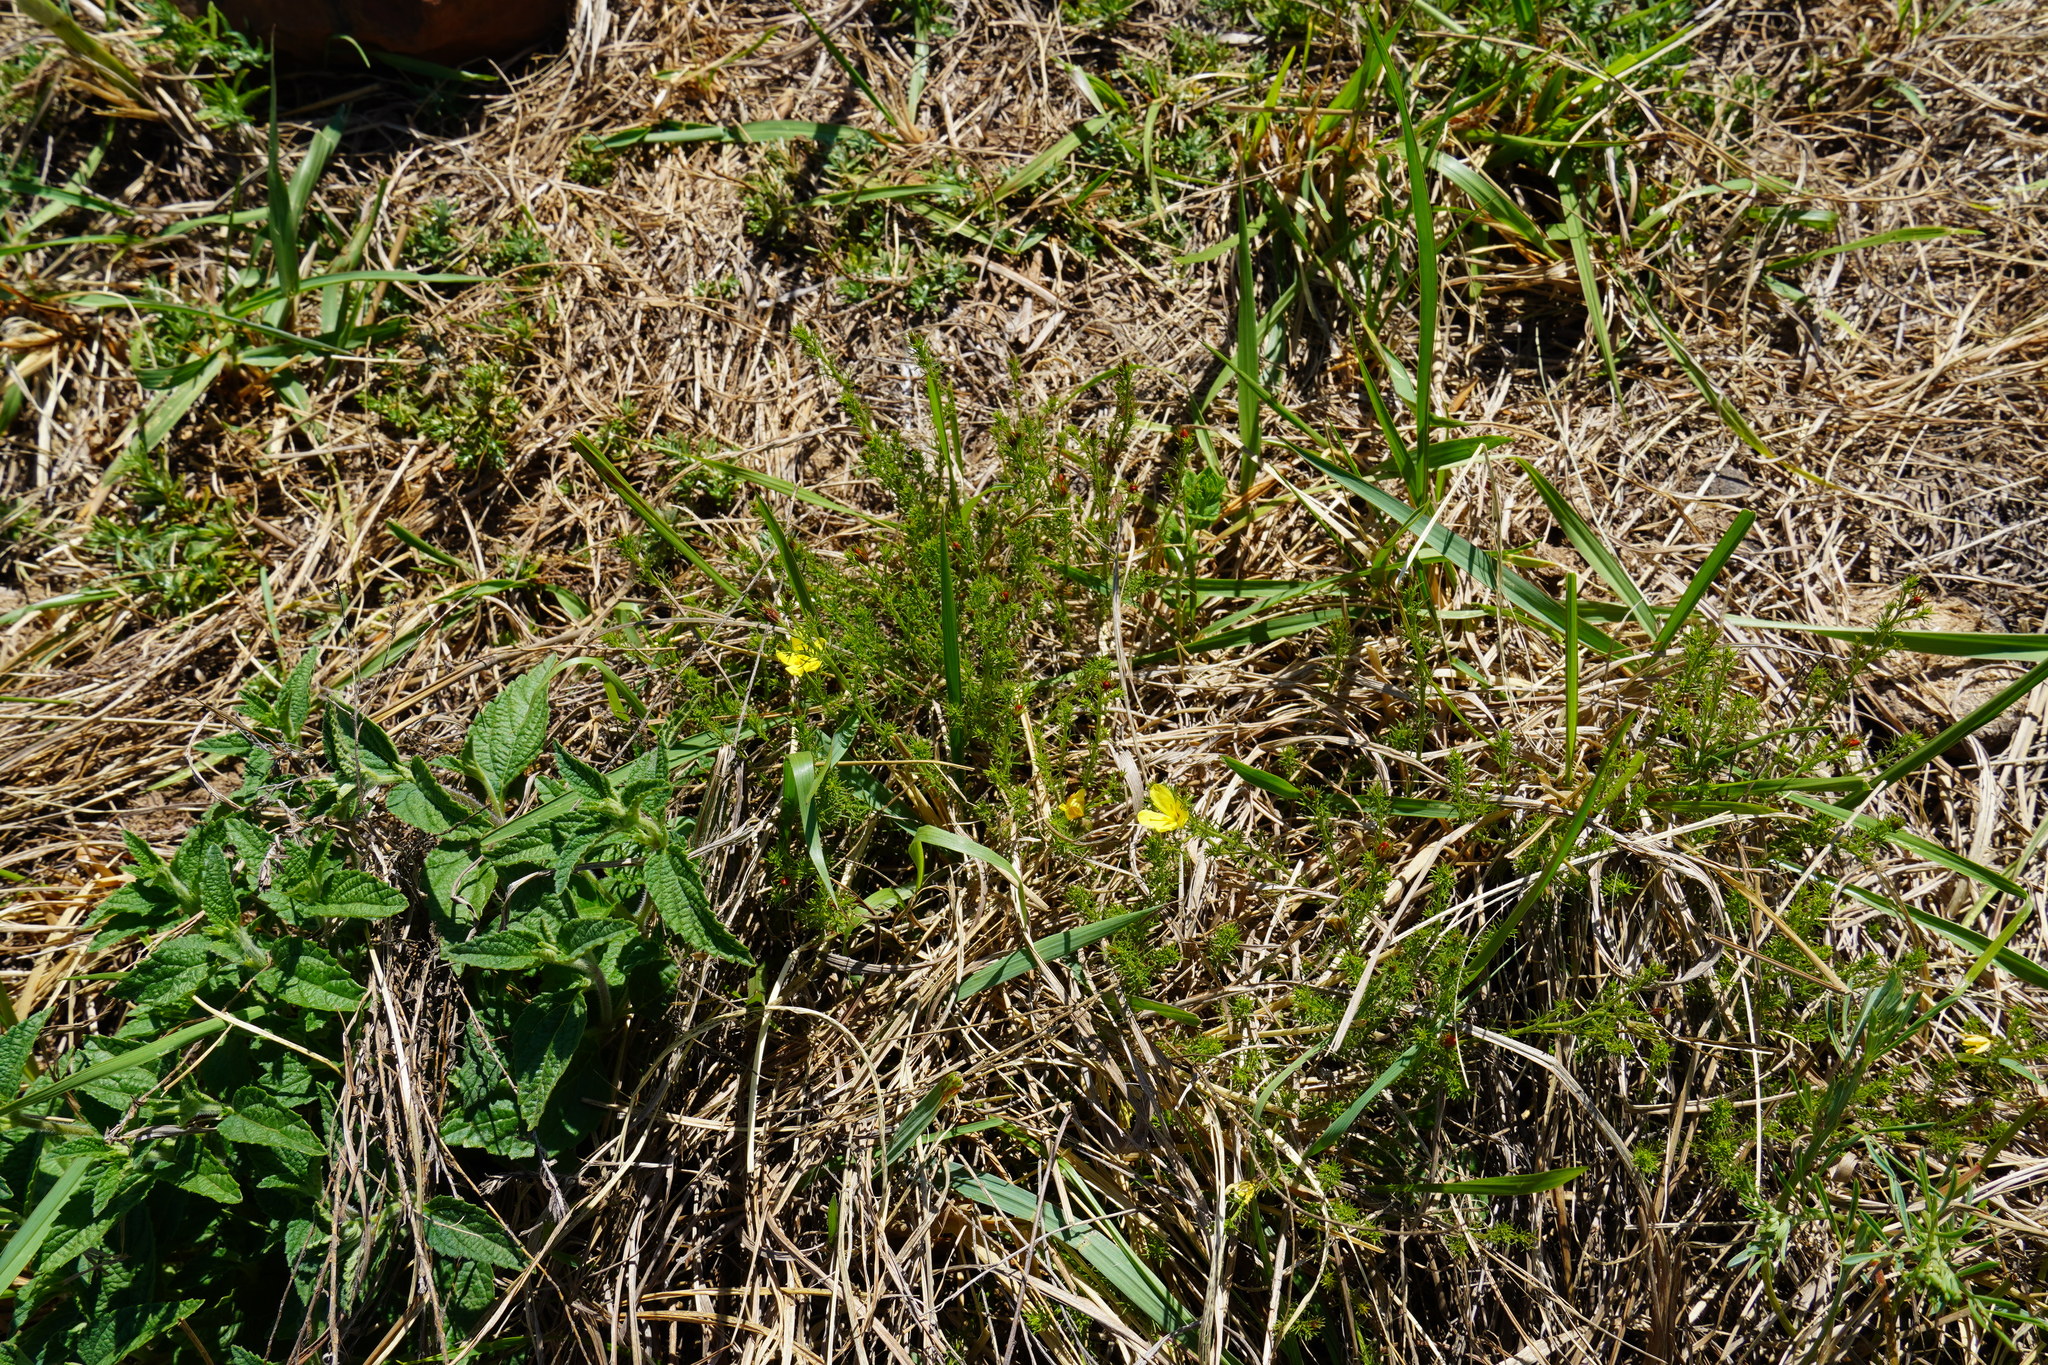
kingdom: Plantae
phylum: Tracheophyta
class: Magnoliopsida
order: Lamiales
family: Oleaceae
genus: Menodora
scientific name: Menodora africana
